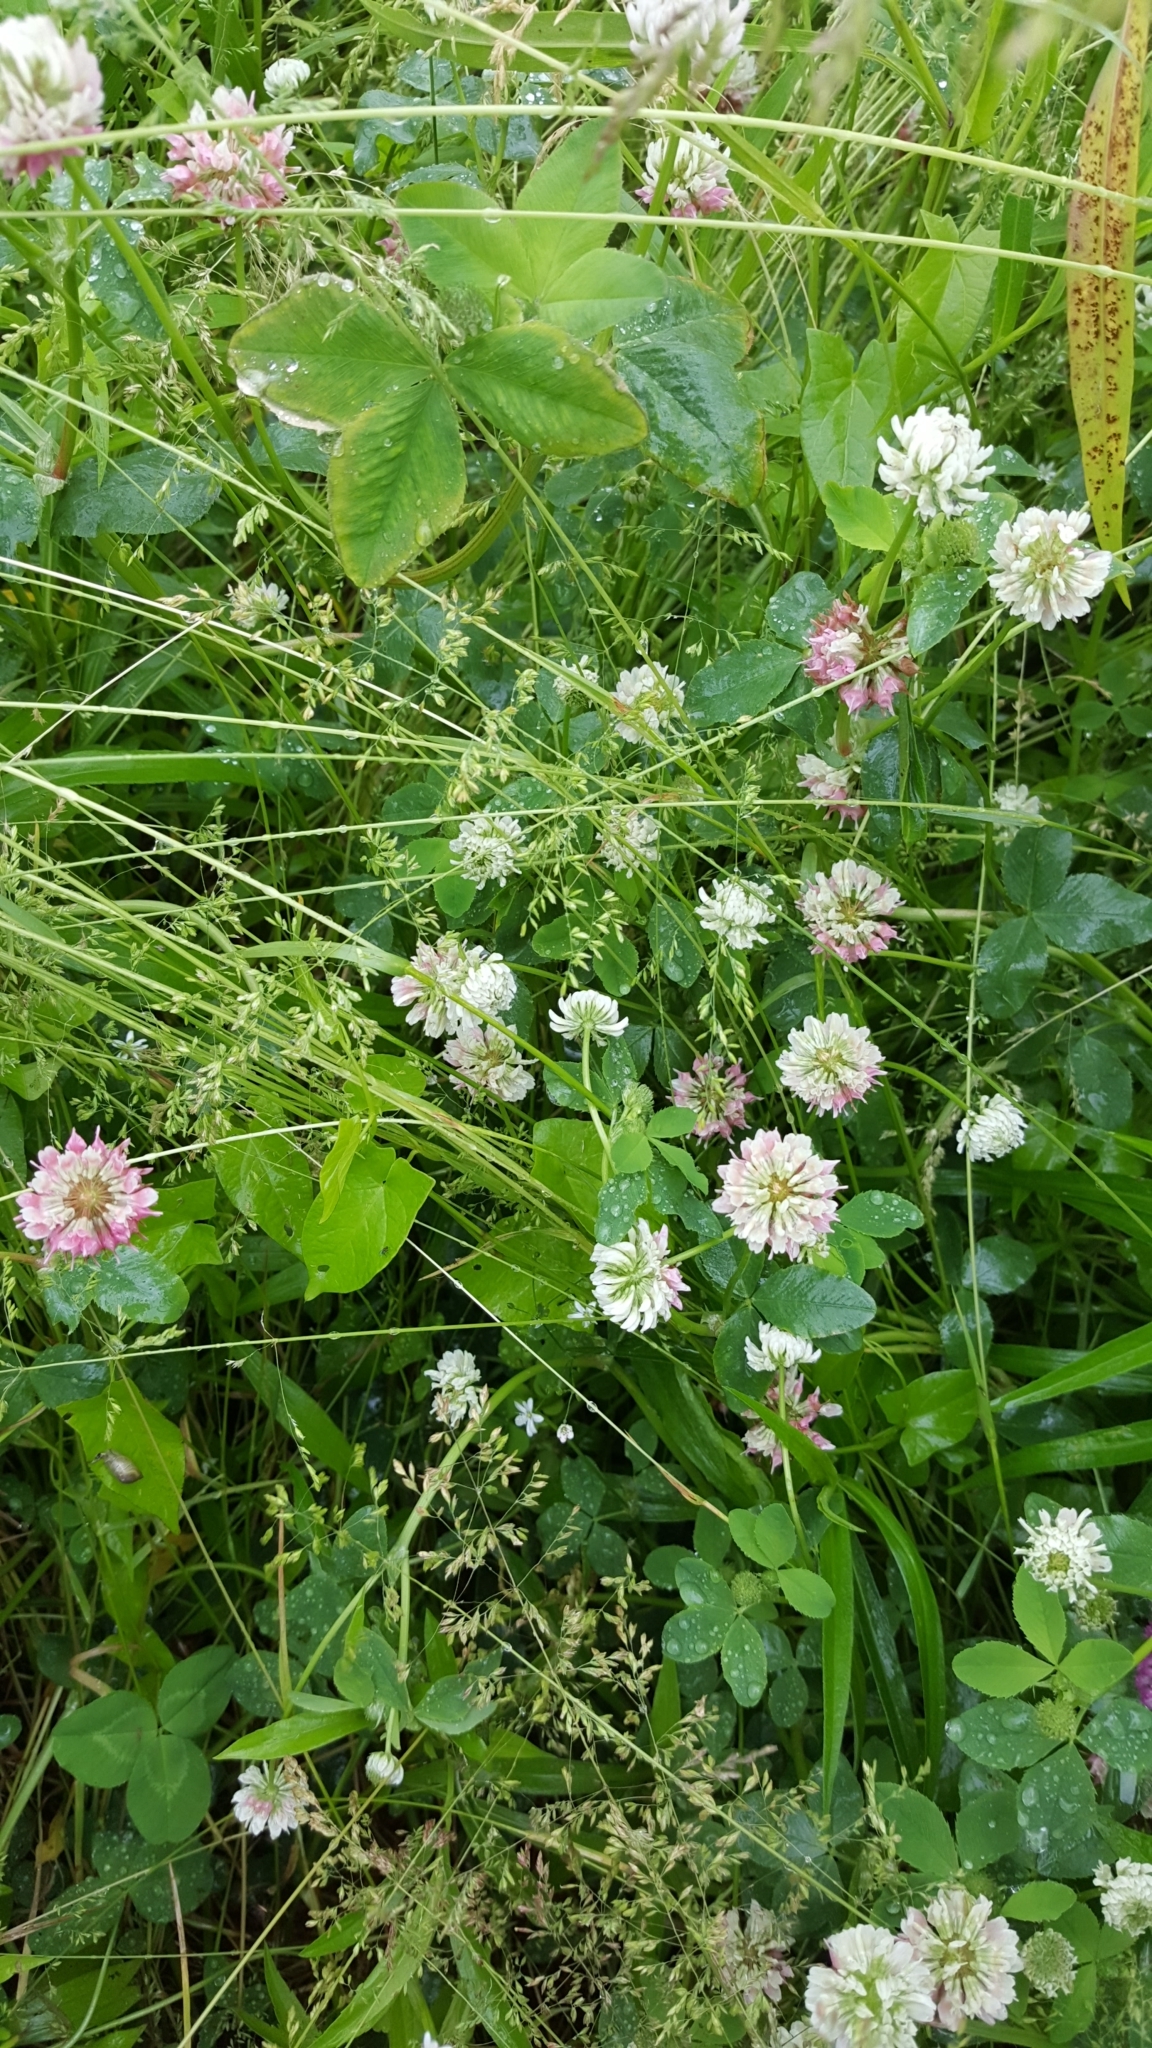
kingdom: Plantae
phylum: Tracheophyta
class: Magnoliopsida
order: Fabales
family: Fabaceae
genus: Trifolium
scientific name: Trifolium hybridum
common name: Alsike clover
